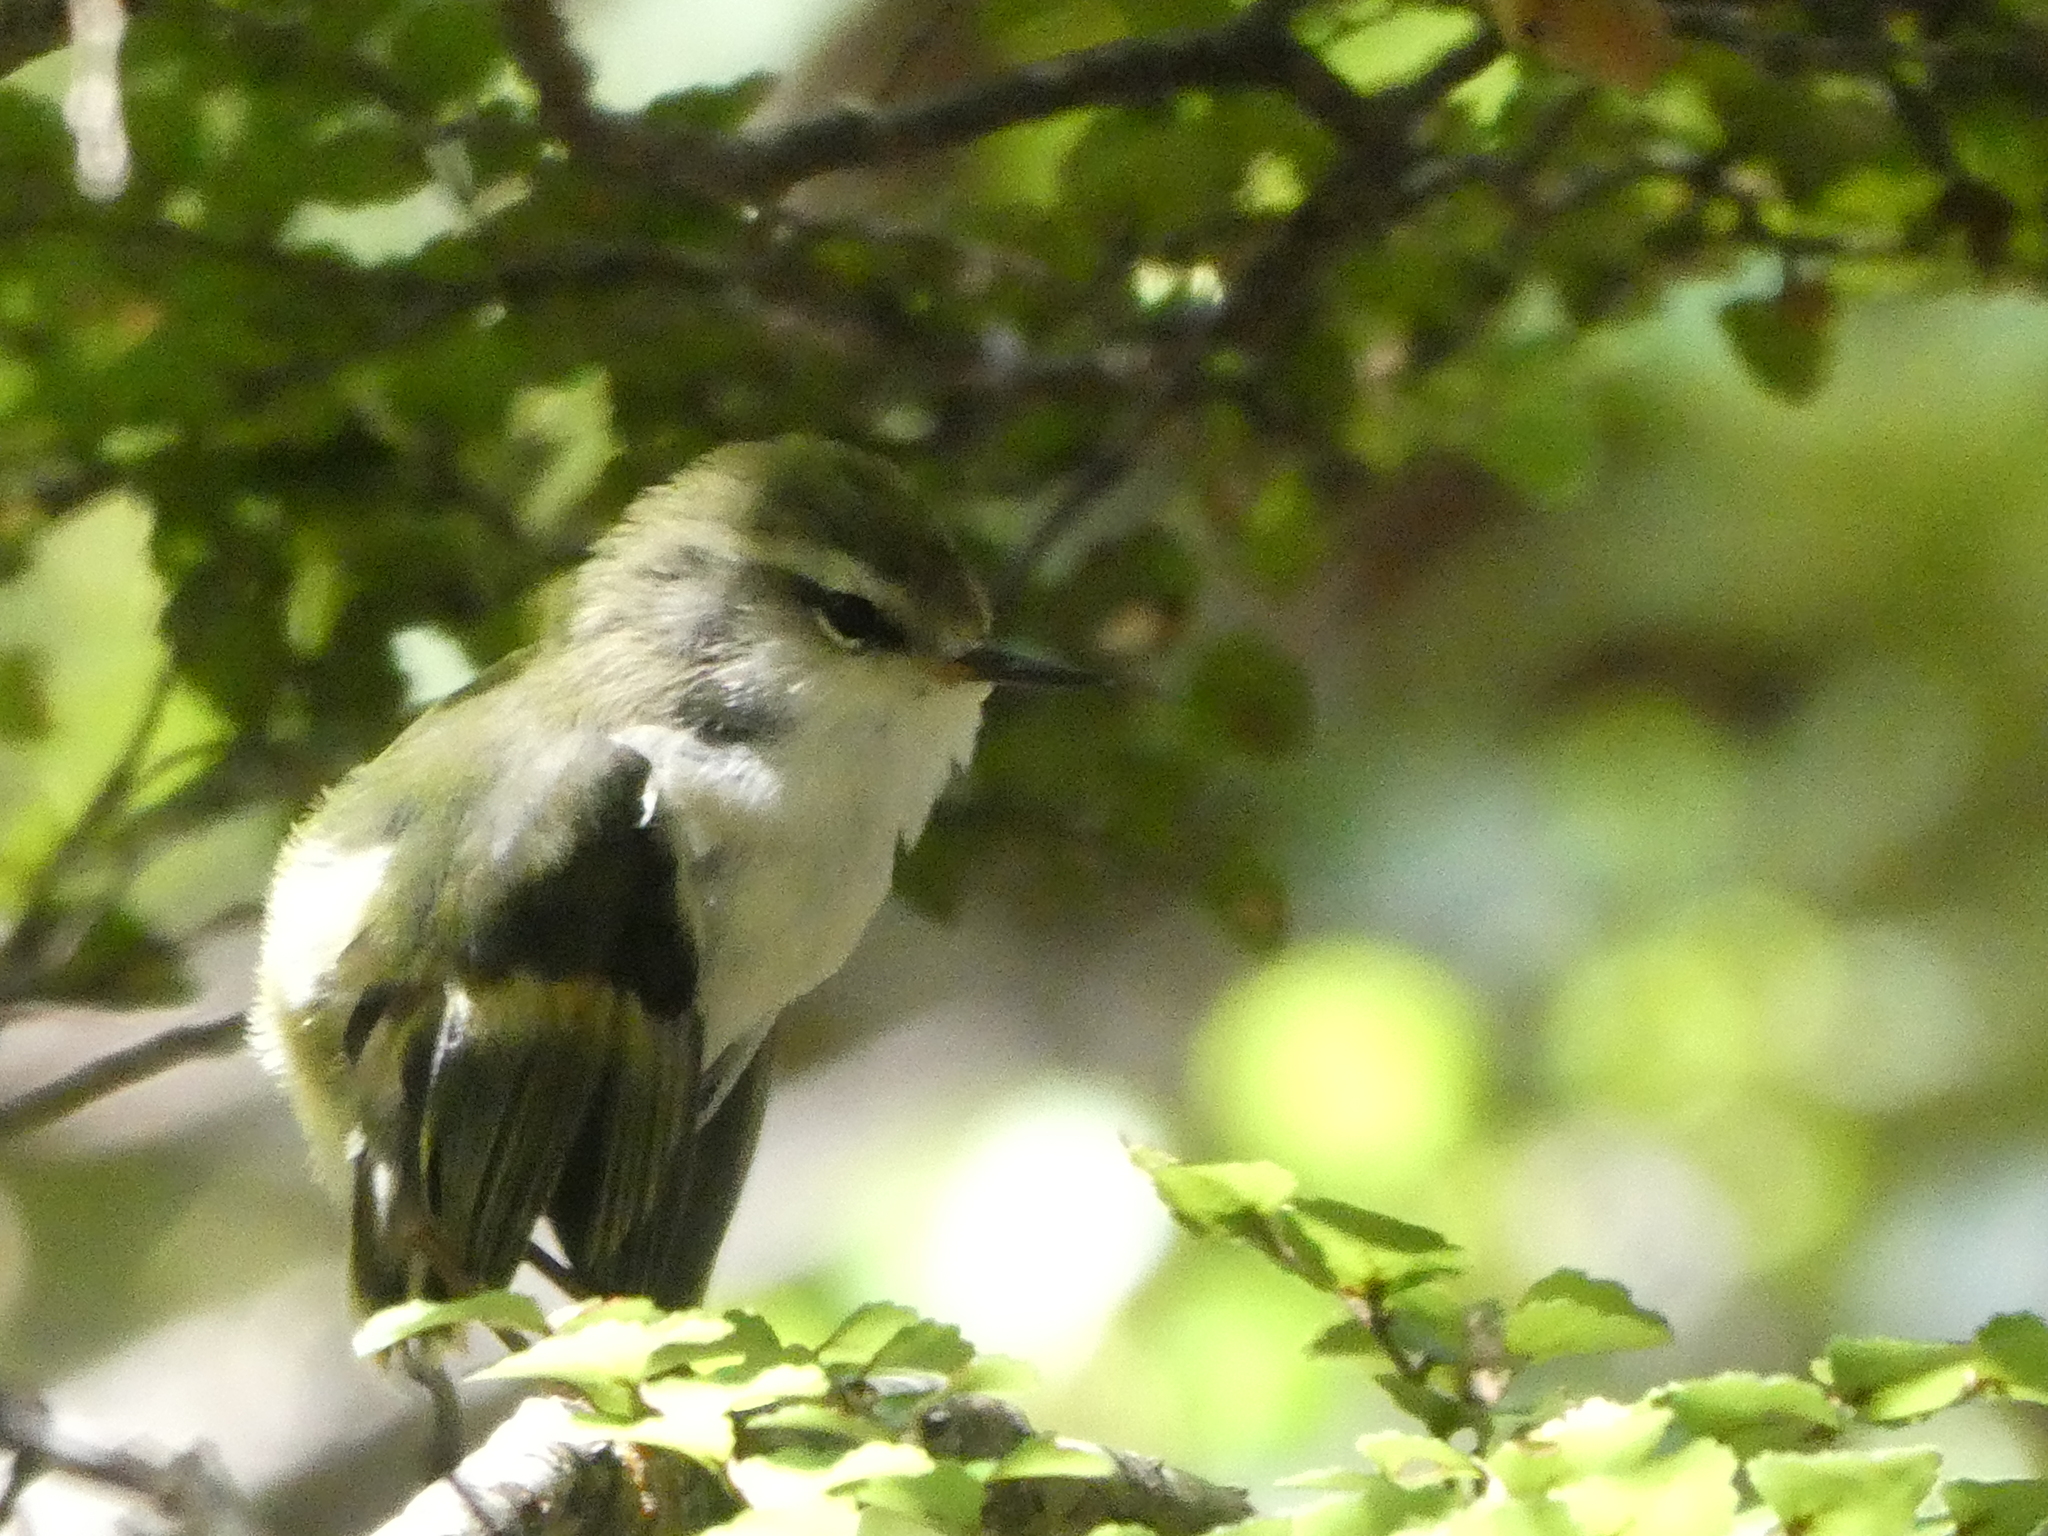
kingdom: Animalia
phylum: Chordata
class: Aves
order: Passeriformes
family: Acanthisittidae
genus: Acanthisitta
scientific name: Acanthisitta chloris
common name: Rifleman
